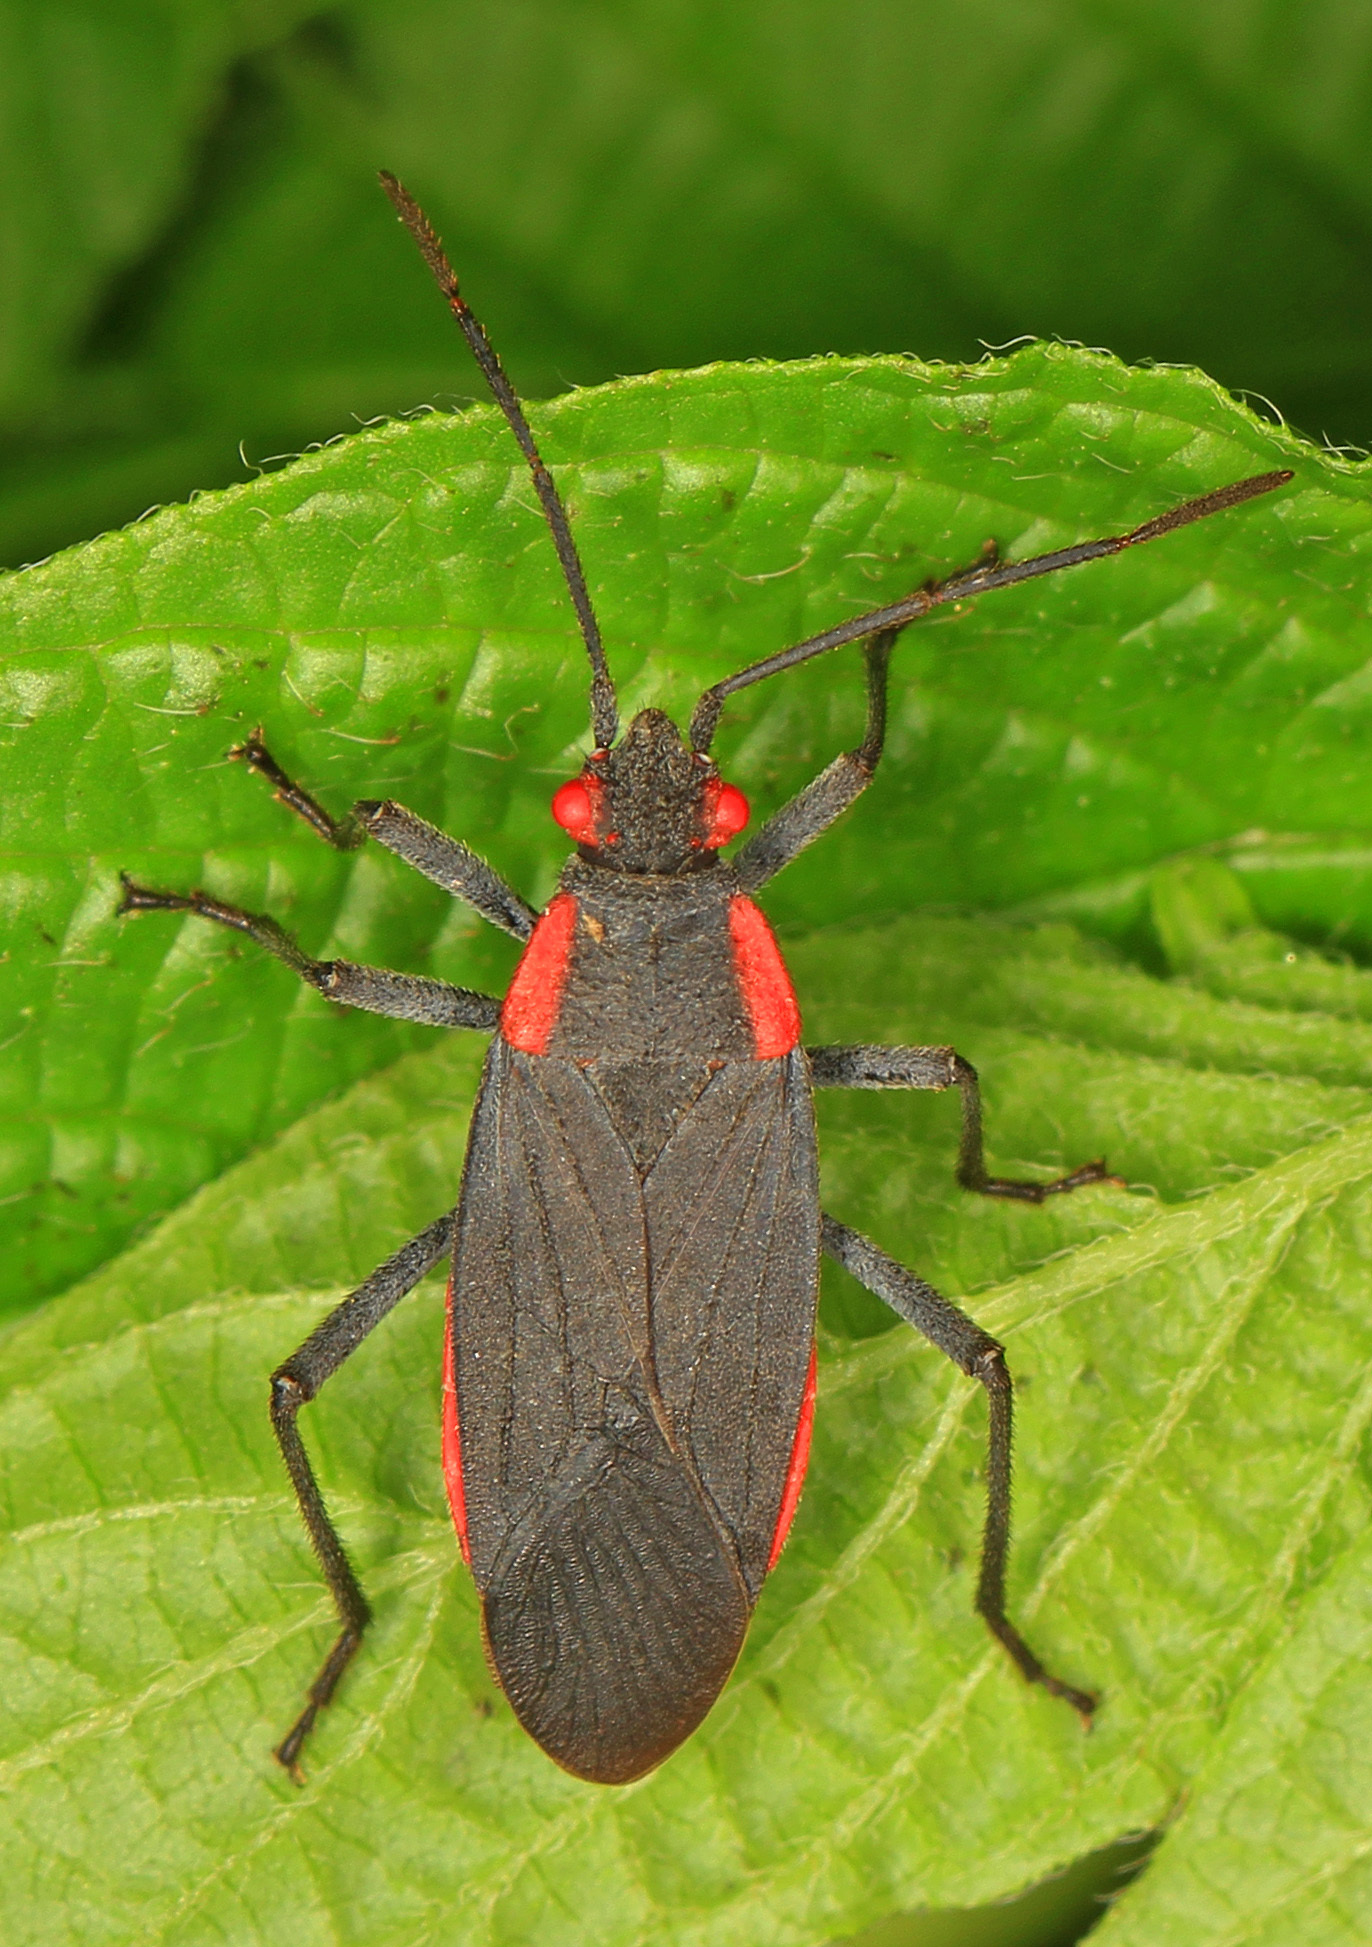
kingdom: Animalia
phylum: Arthropoda
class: Insecta
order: Hemiptera
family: Rhopalidae
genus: Jadera
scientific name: Jadera haematoloma
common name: Red-shouldered bug
